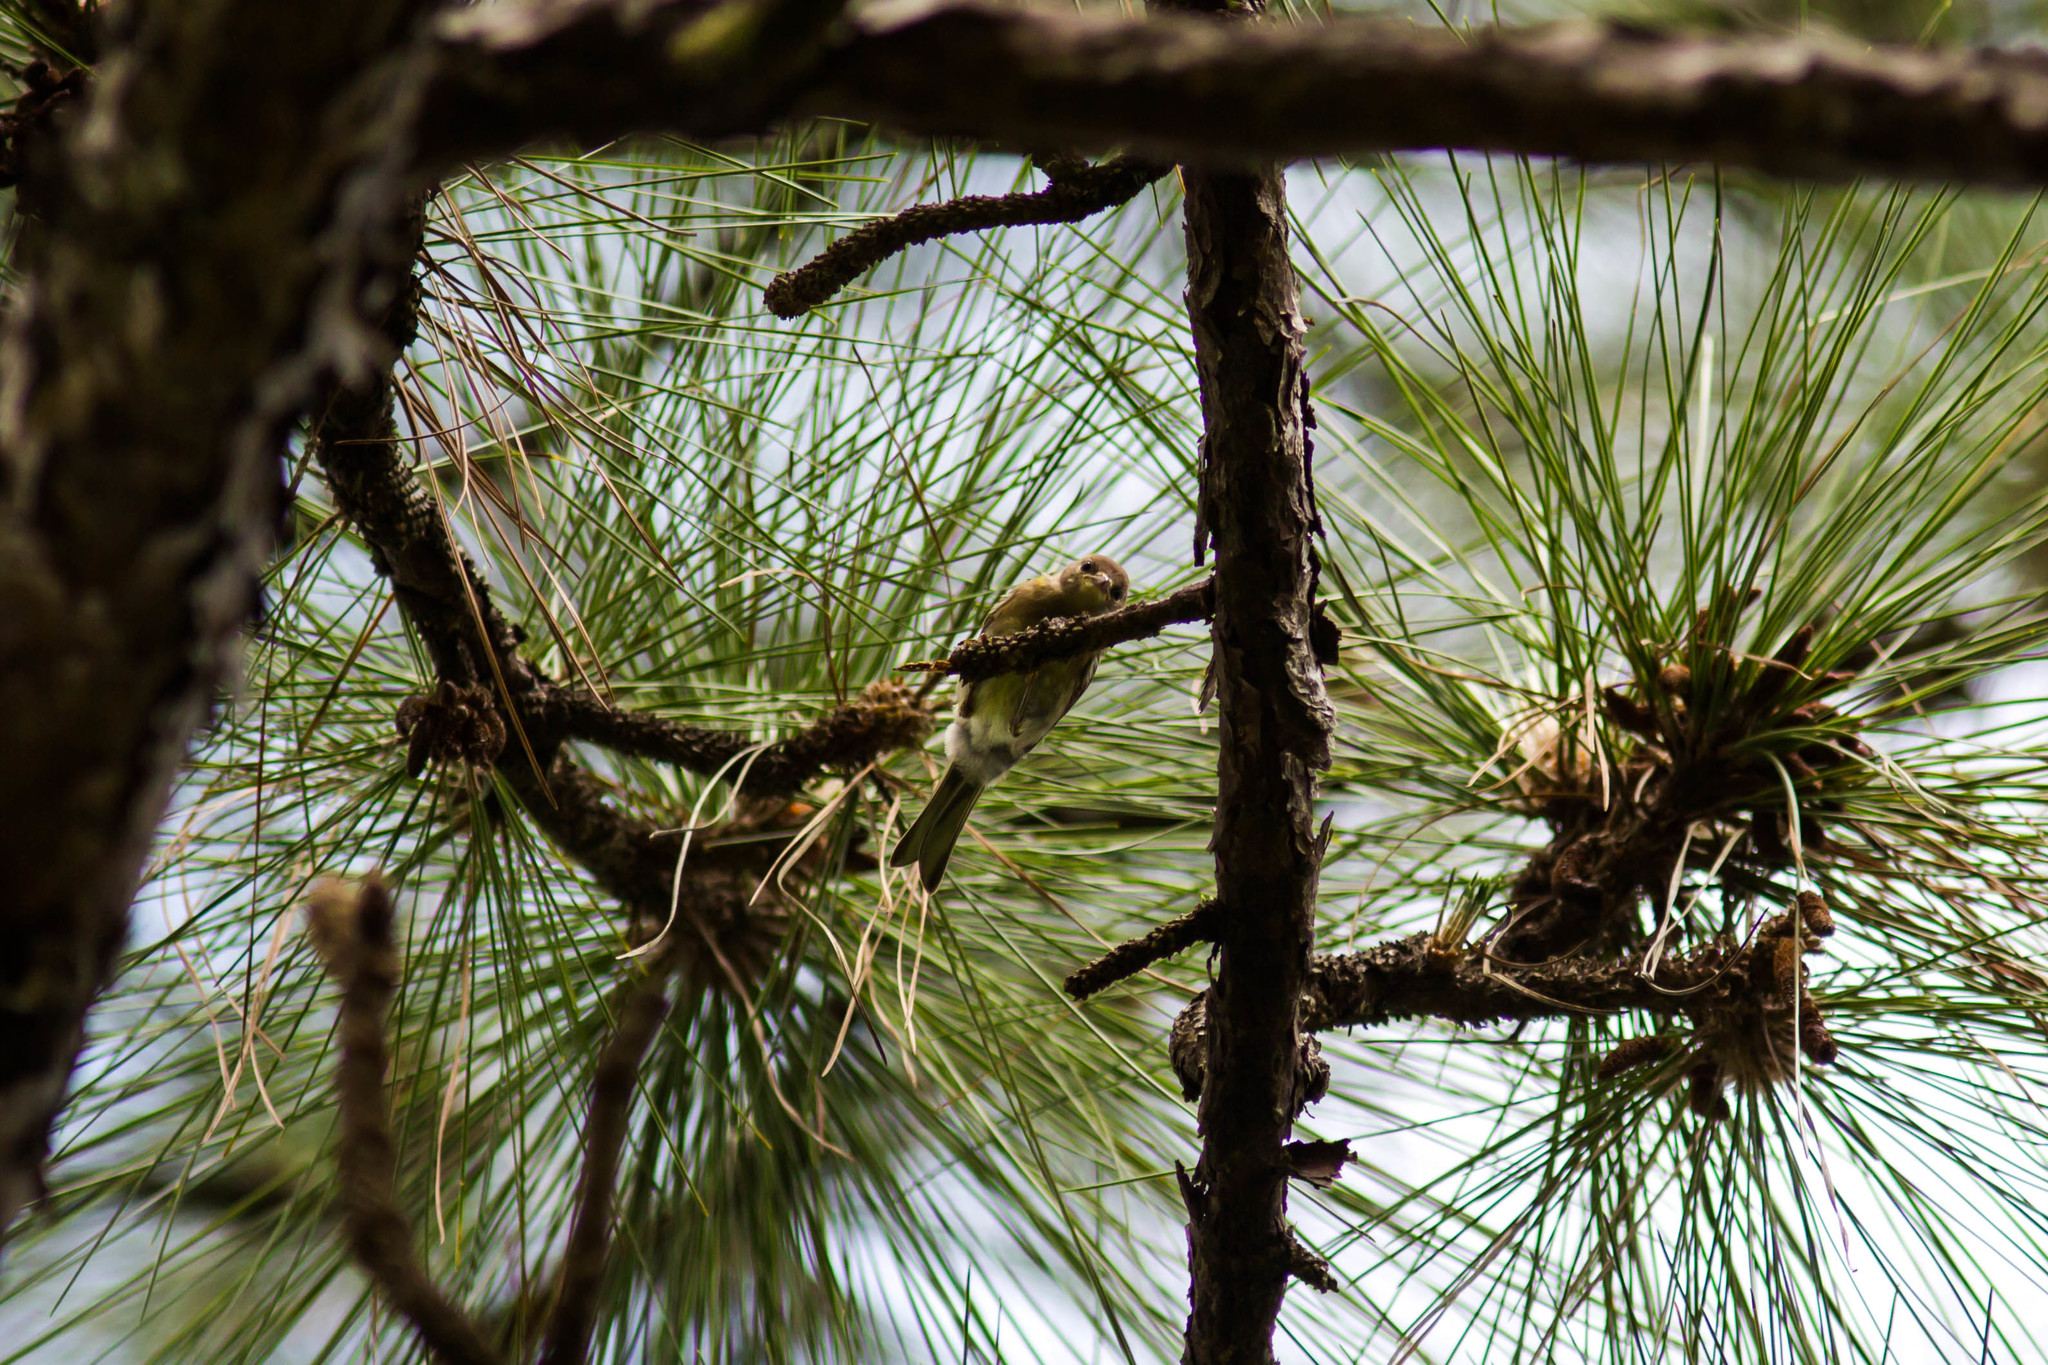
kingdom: Animalia
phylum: Chordata
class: Aves
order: Passeriformes
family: Parulidae
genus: Setophaga
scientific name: Setophaga pinus
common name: Pine warbler
